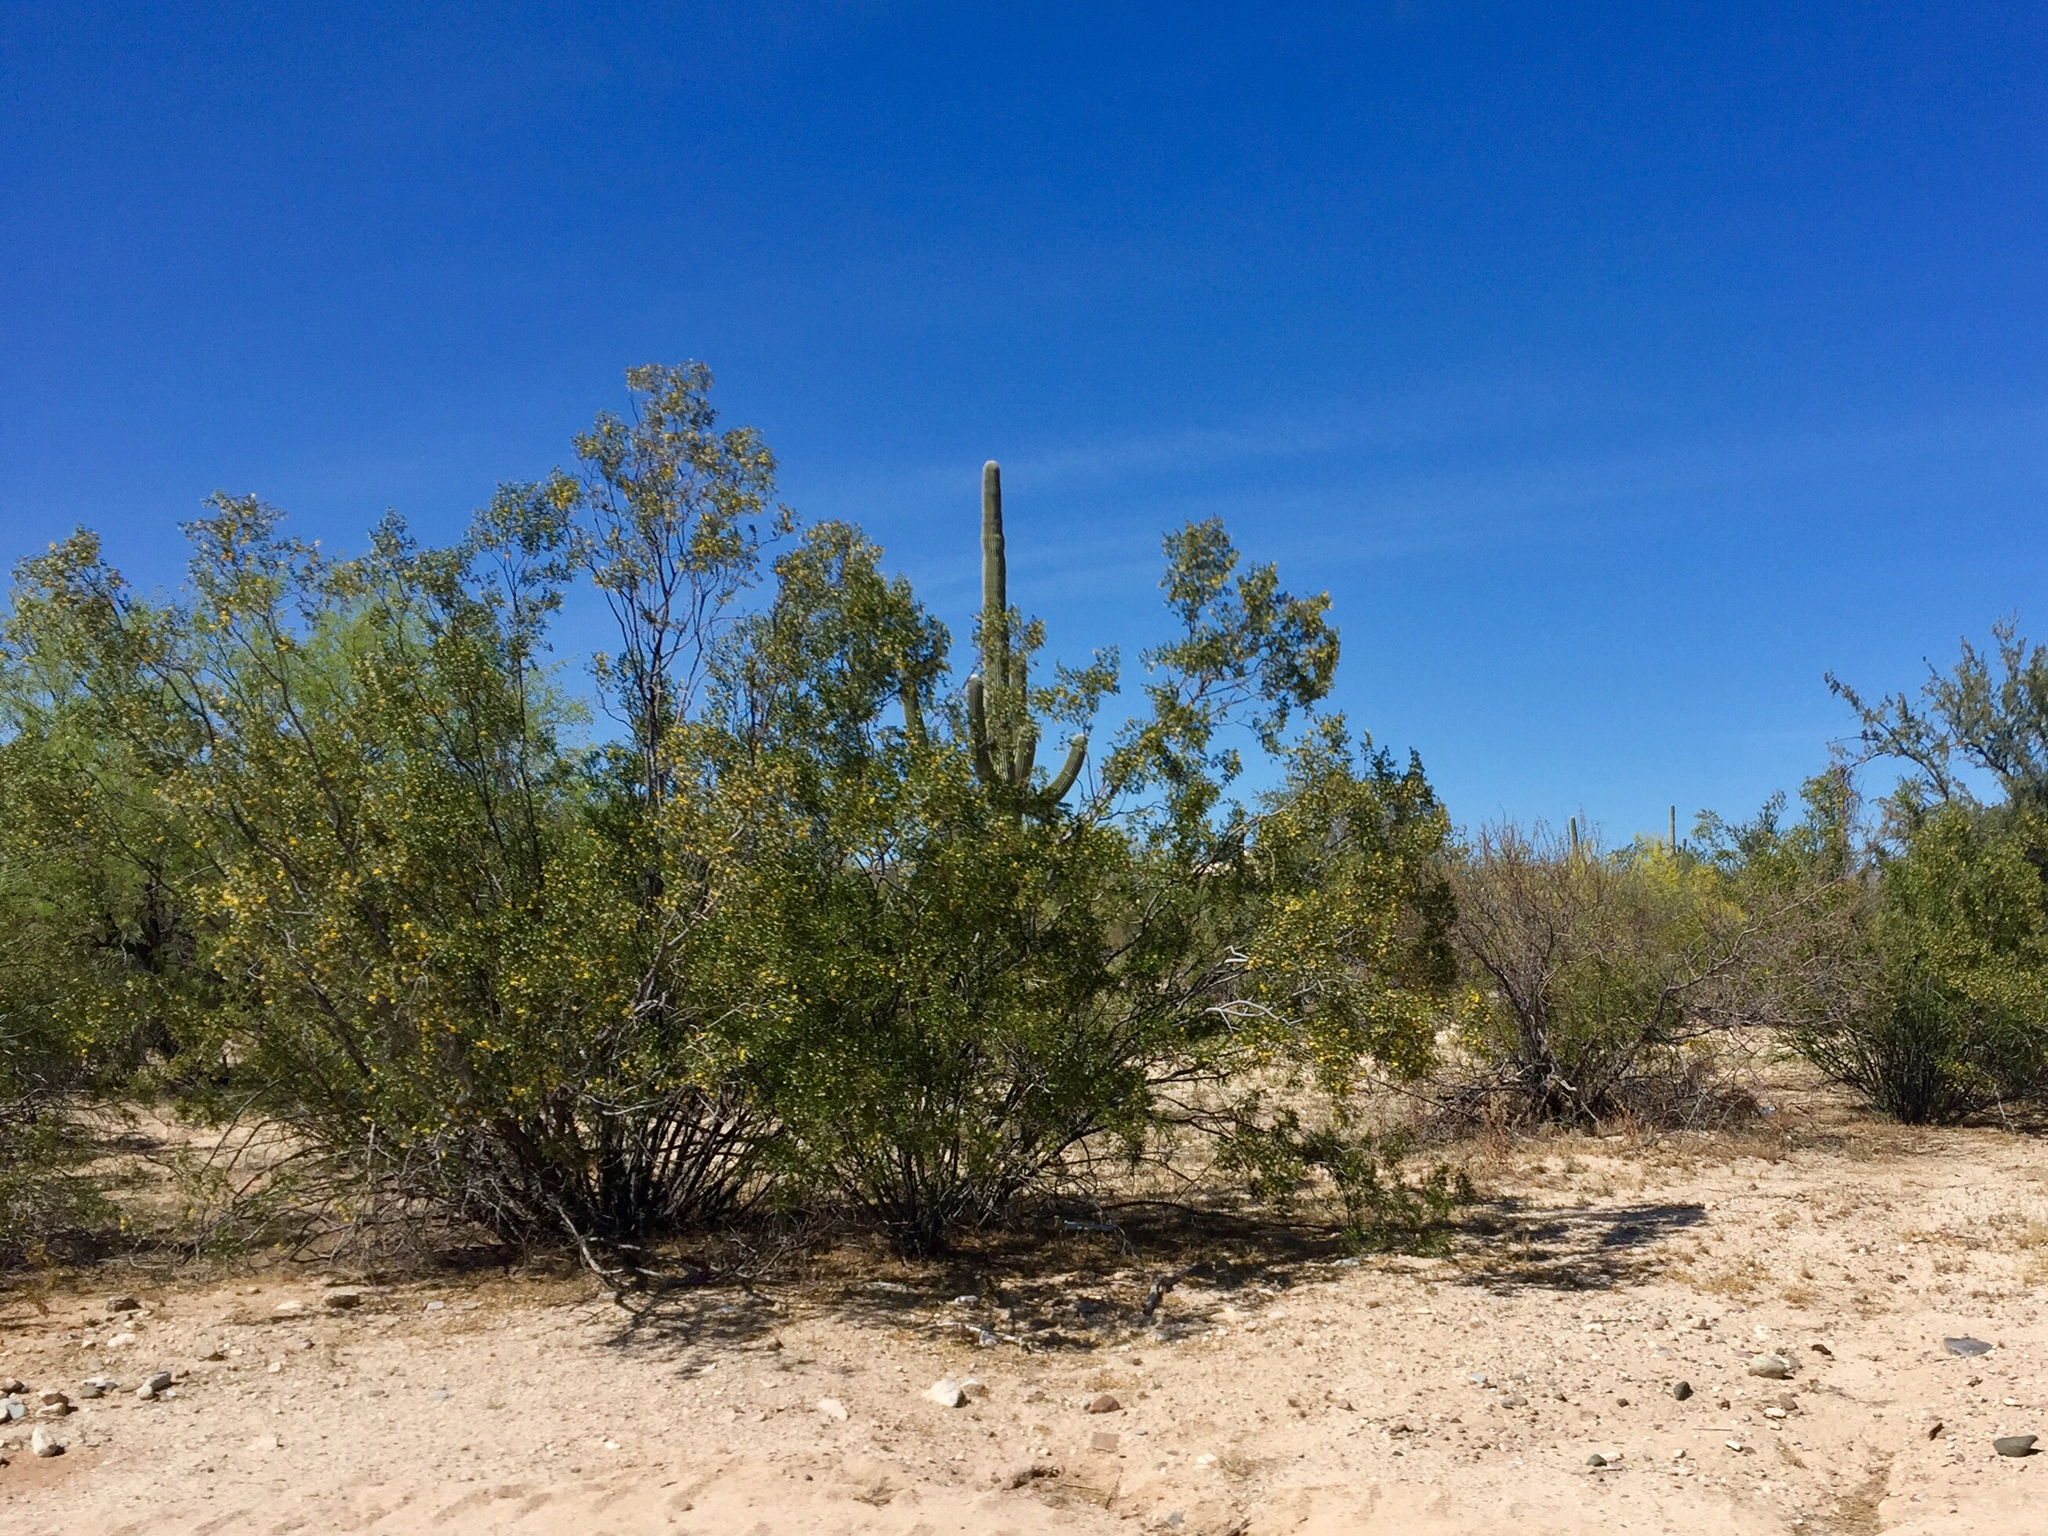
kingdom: Plantae
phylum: Tracheophyta
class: Magnoliopsida
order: Zygophyllales
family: Zygophyllaceae
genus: Larrea
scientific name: Larrea tridentata
